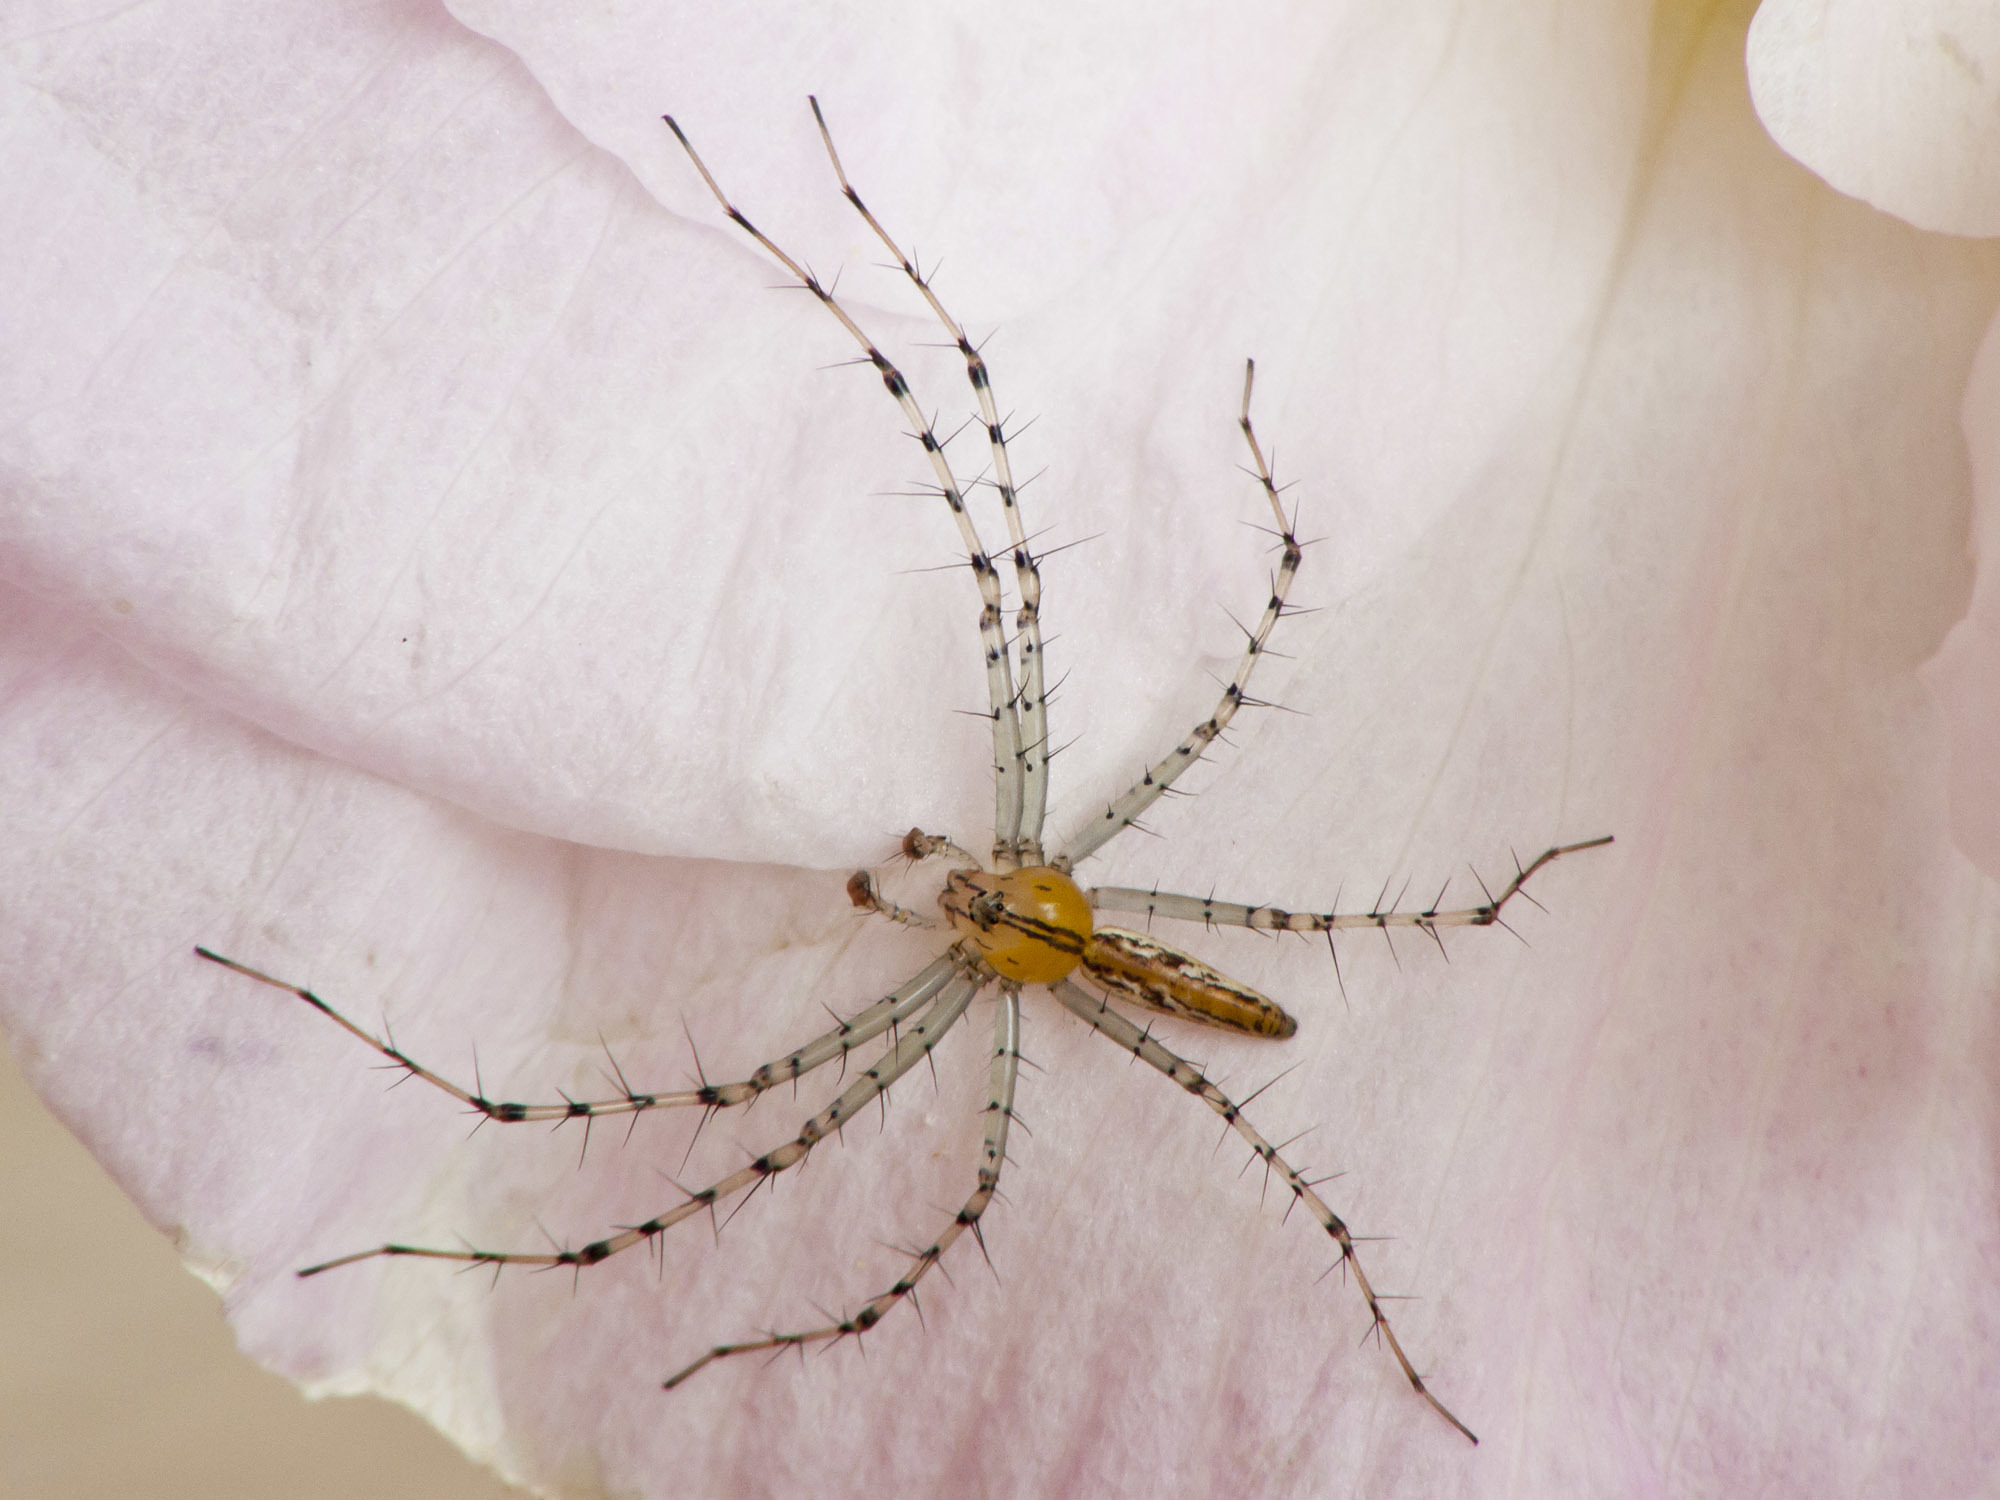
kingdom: Animalia
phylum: Arthropoda
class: Arachnida
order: Araneae
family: Oxyopidae
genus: Peucetia
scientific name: Peucetia rubrolineata
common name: Lynx spiders
